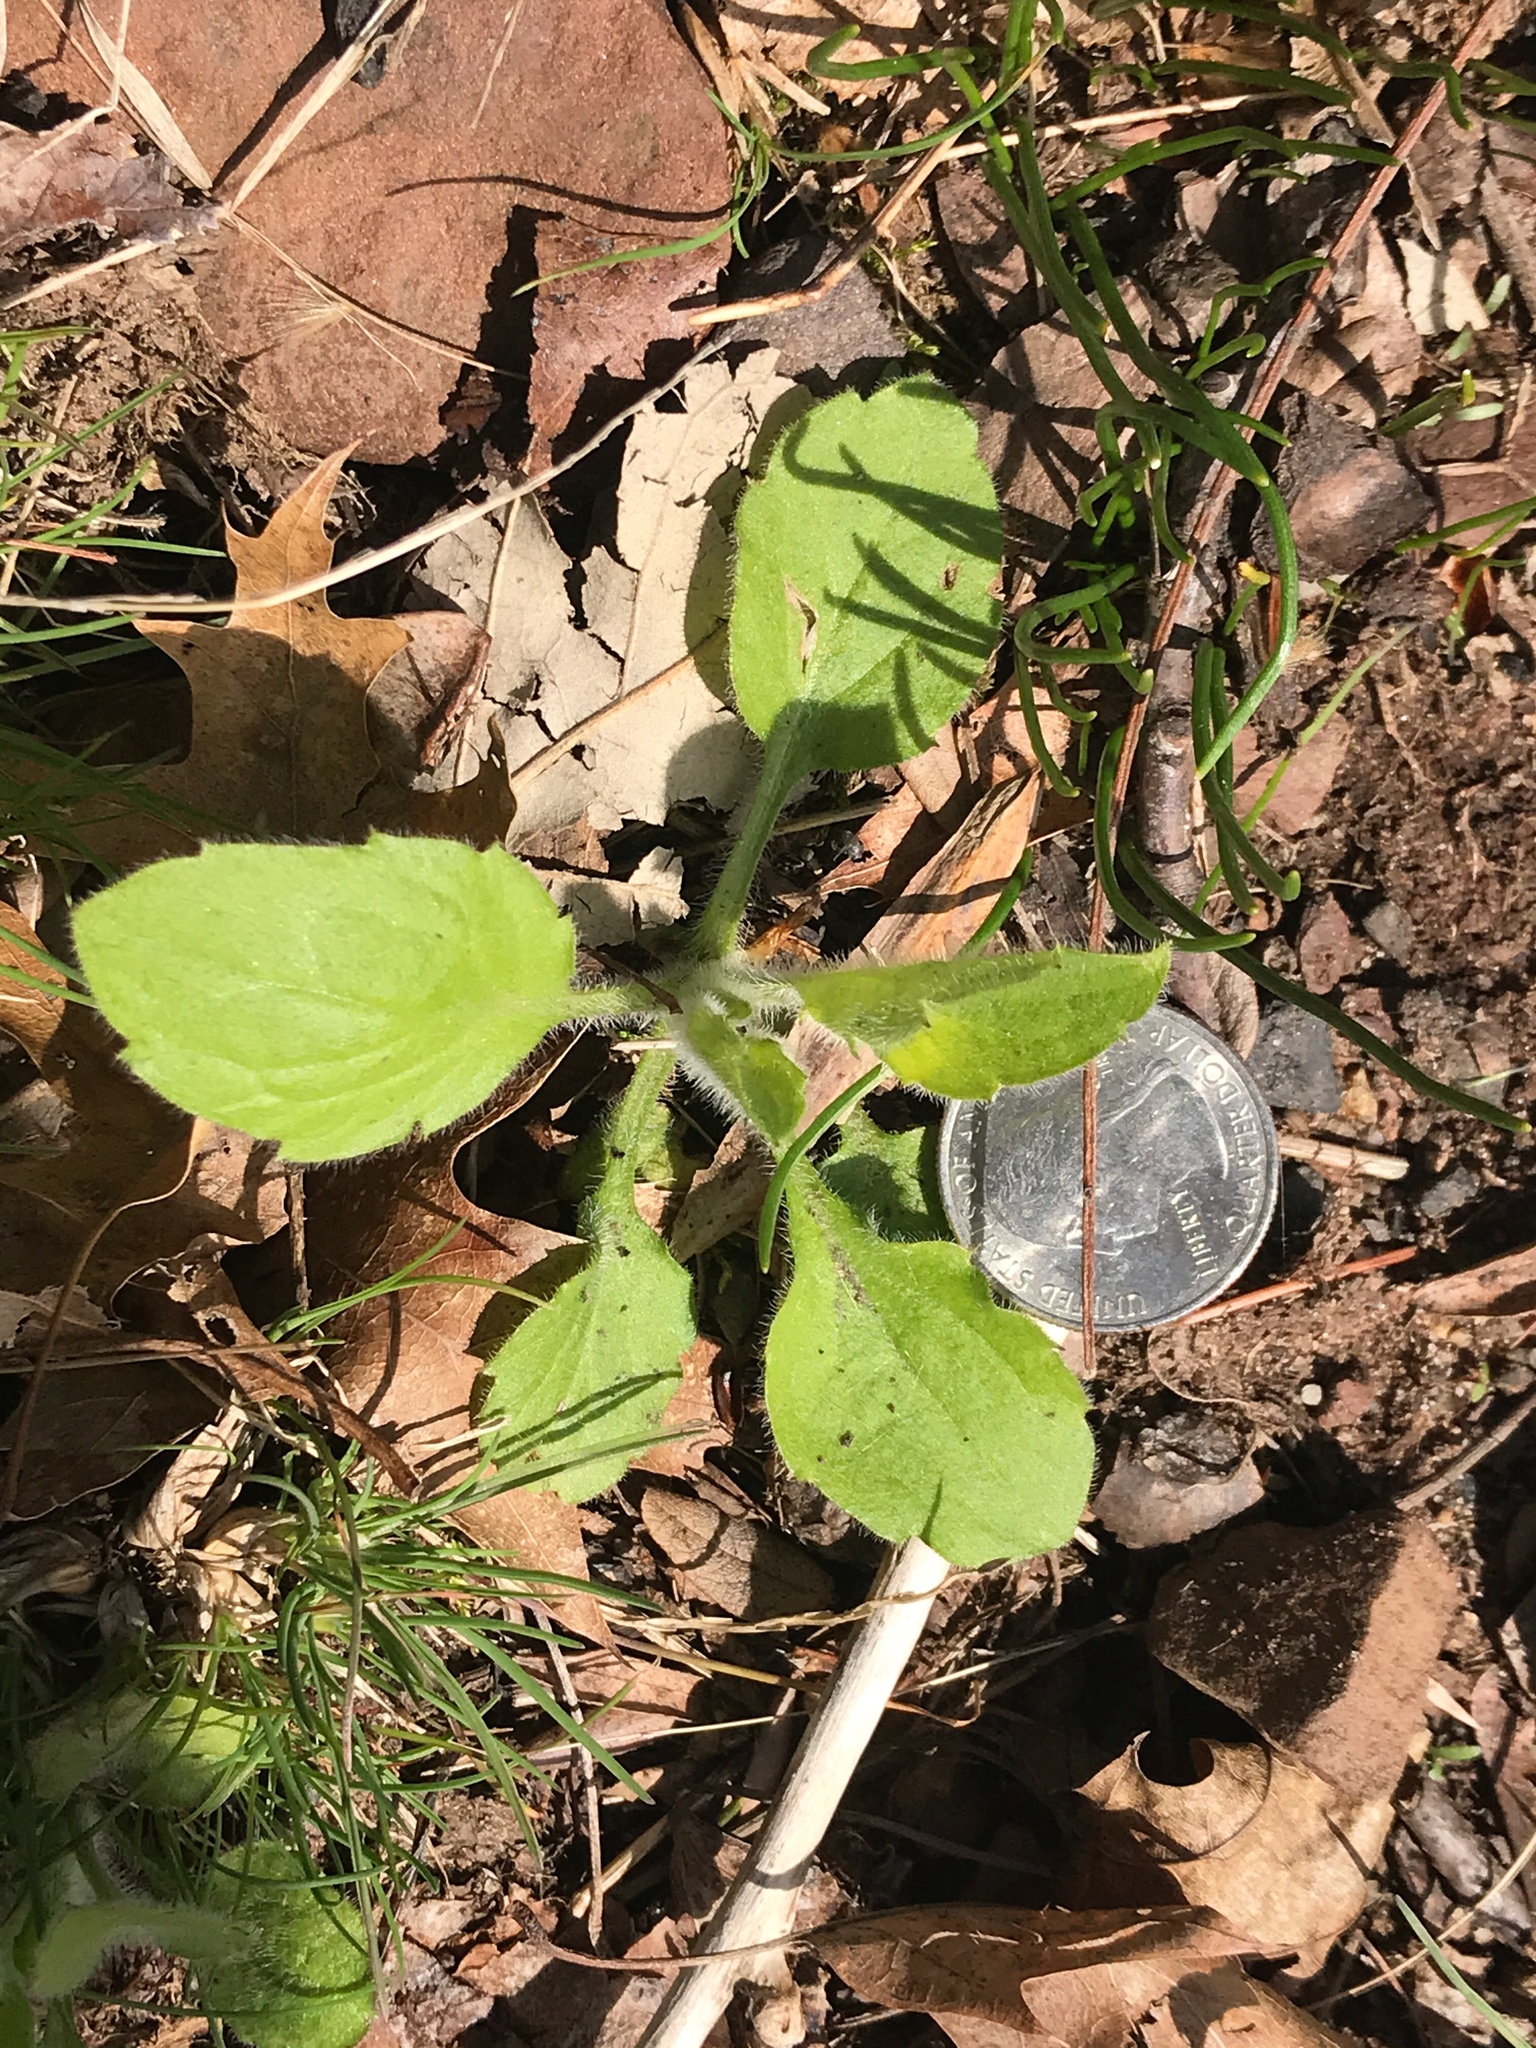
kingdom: Plantae
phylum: Tracheophyta
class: Magnoliopsida
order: Asterales
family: Asteraceae
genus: Erigeron
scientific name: Erigeron annuus
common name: Tall fleabane
